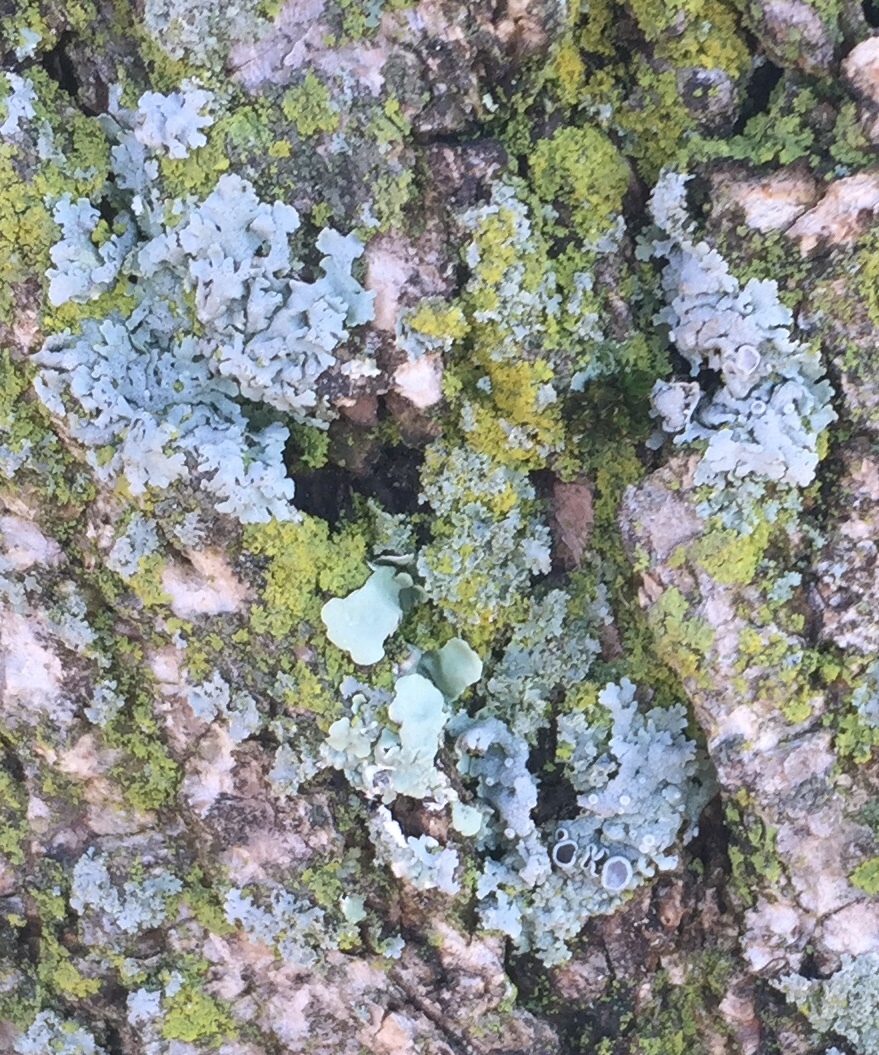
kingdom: Fungi
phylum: Ascomycota
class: Lecanoromycetes
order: Caliciales
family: Physciaceae
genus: Physcia
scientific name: Physcia stellaris
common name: Star rosette lichen
